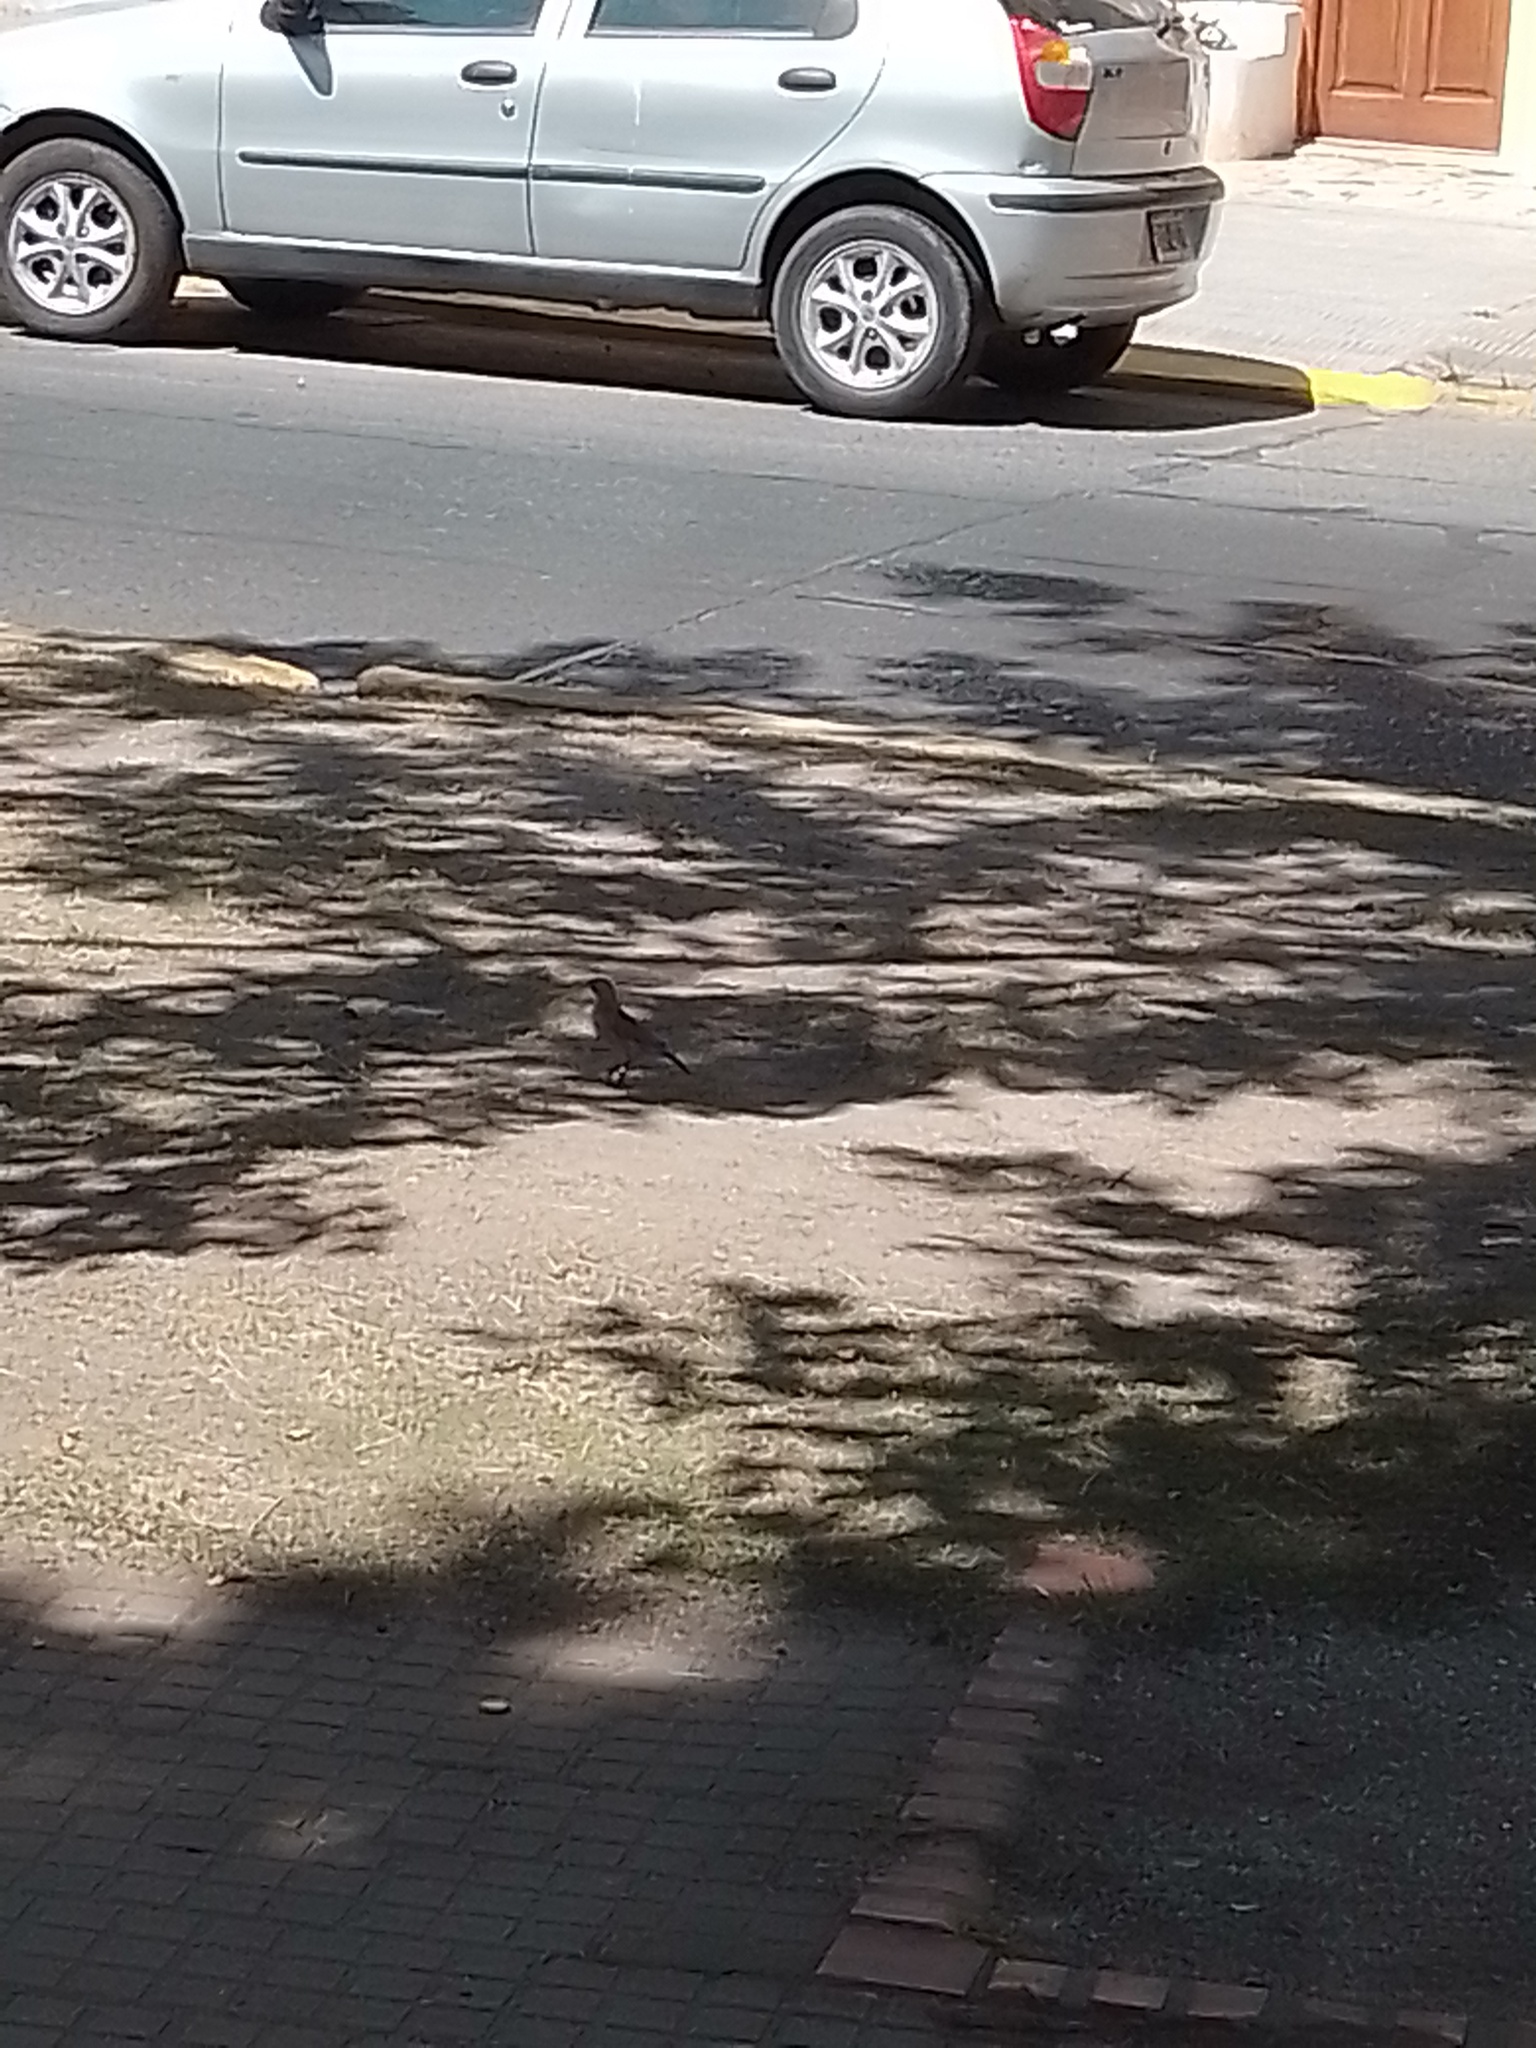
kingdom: Animalia
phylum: Chordata
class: Aves
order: Passeriformes
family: Furnariidae
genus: Furnarius
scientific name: Furnarius rufus
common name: Rufous hornero
